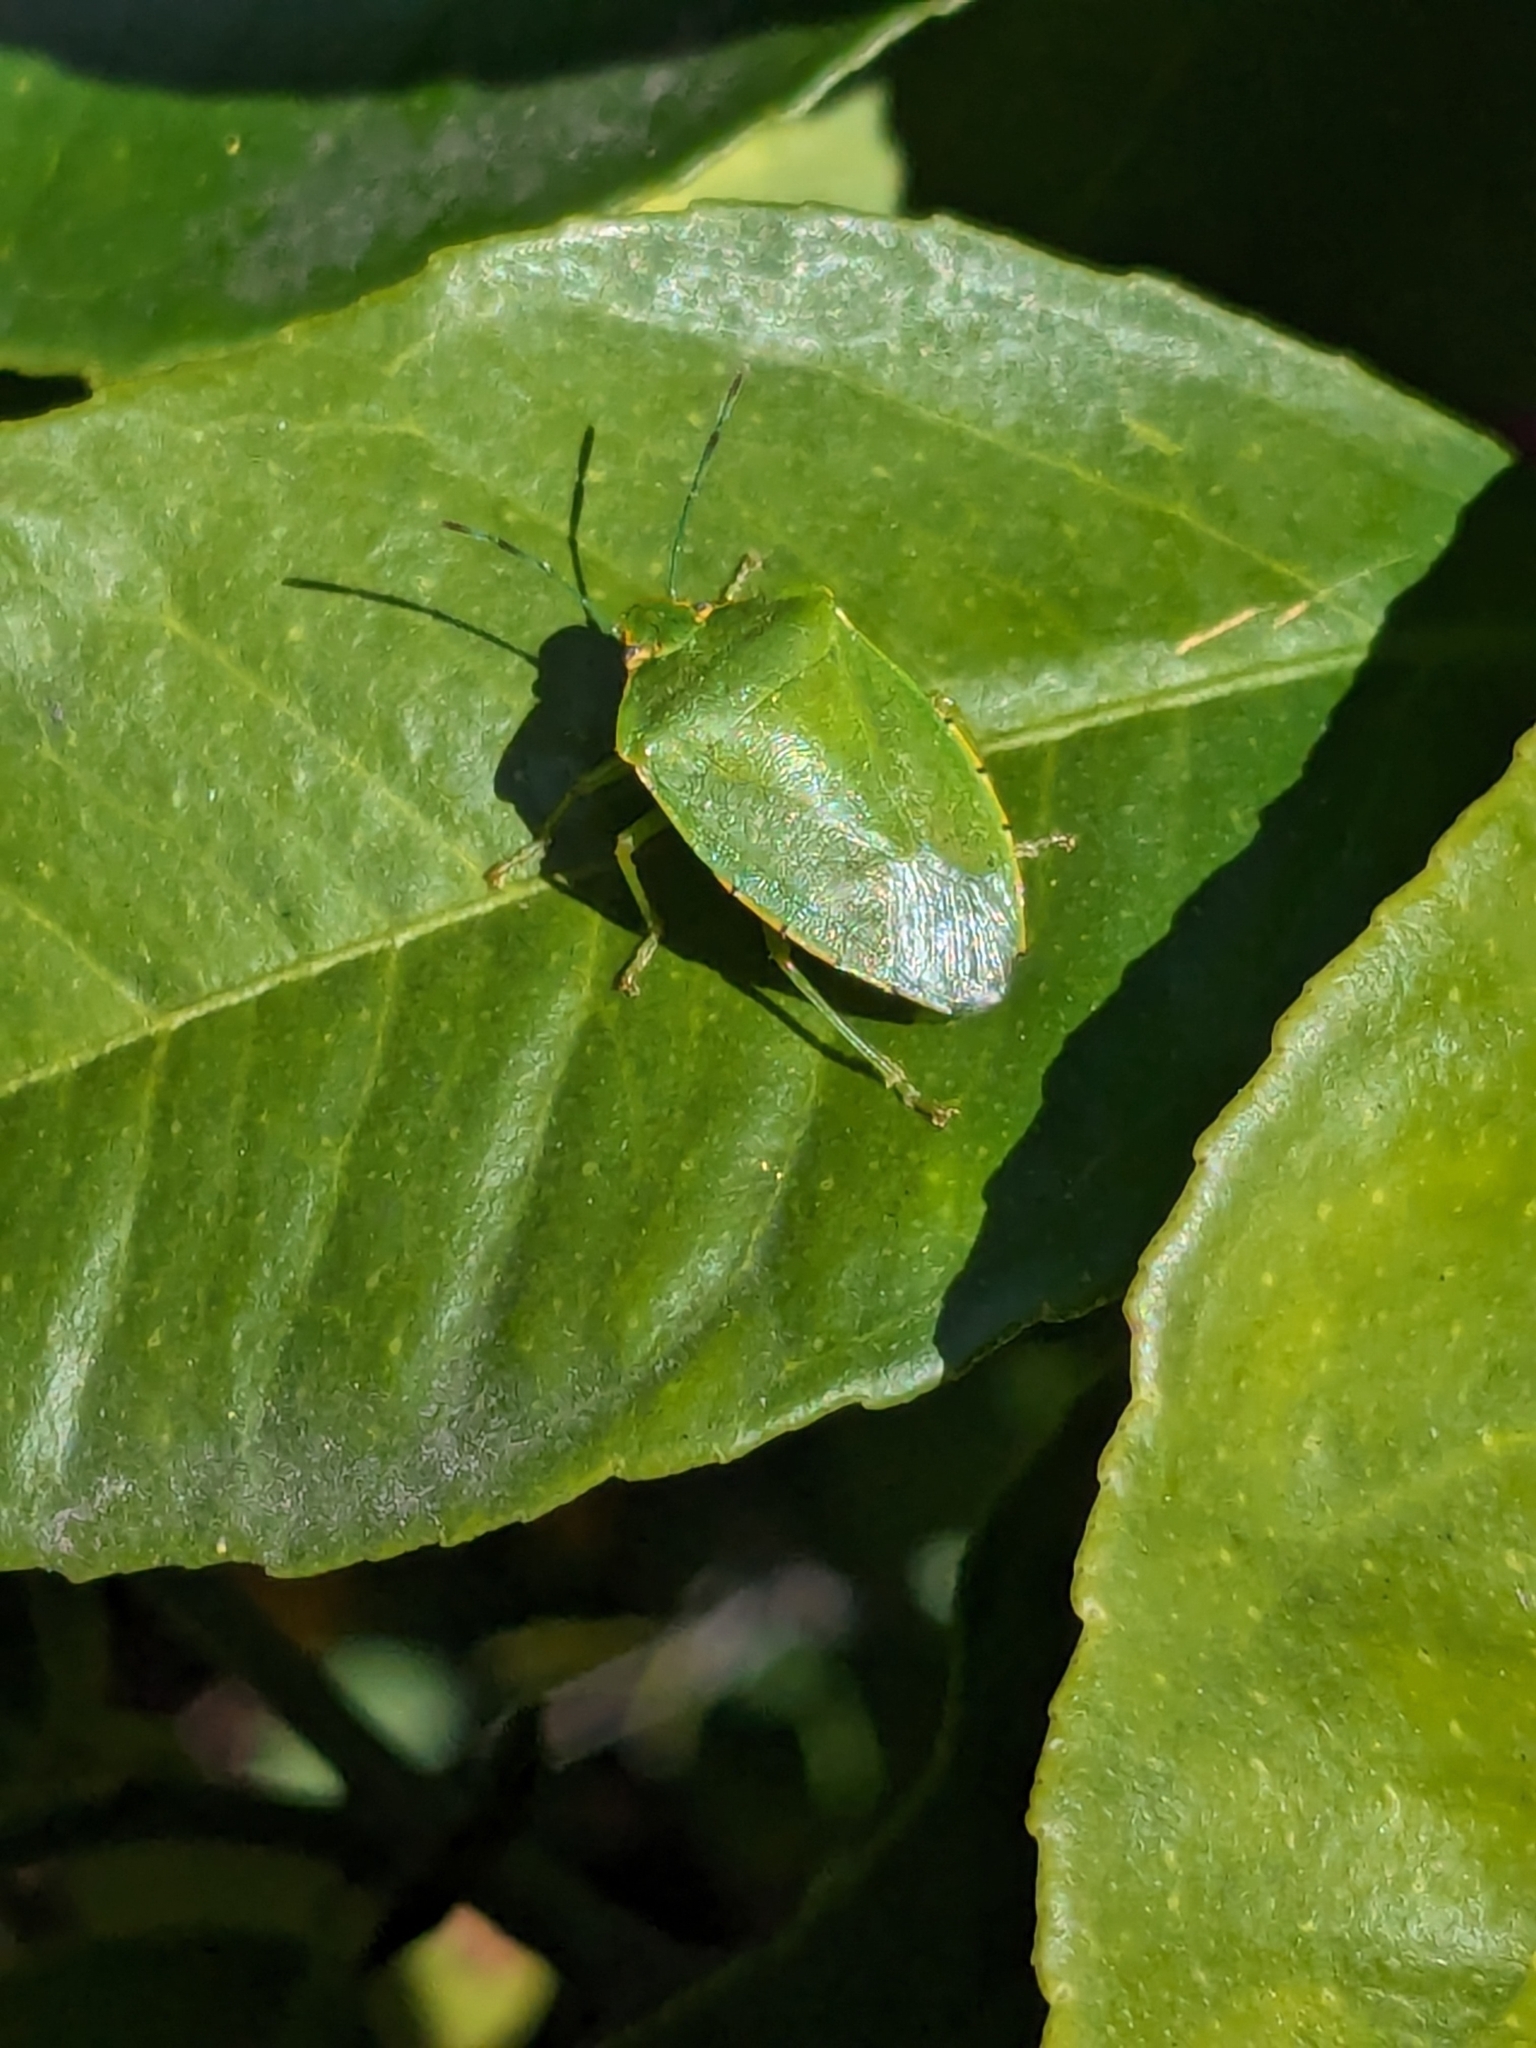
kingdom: Animalia
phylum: Arthropoda
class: Insecta
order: Hemiptera
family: Pentatomidae
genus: Chinavia
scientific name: Chinavia hilaris
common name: Green stink bug
